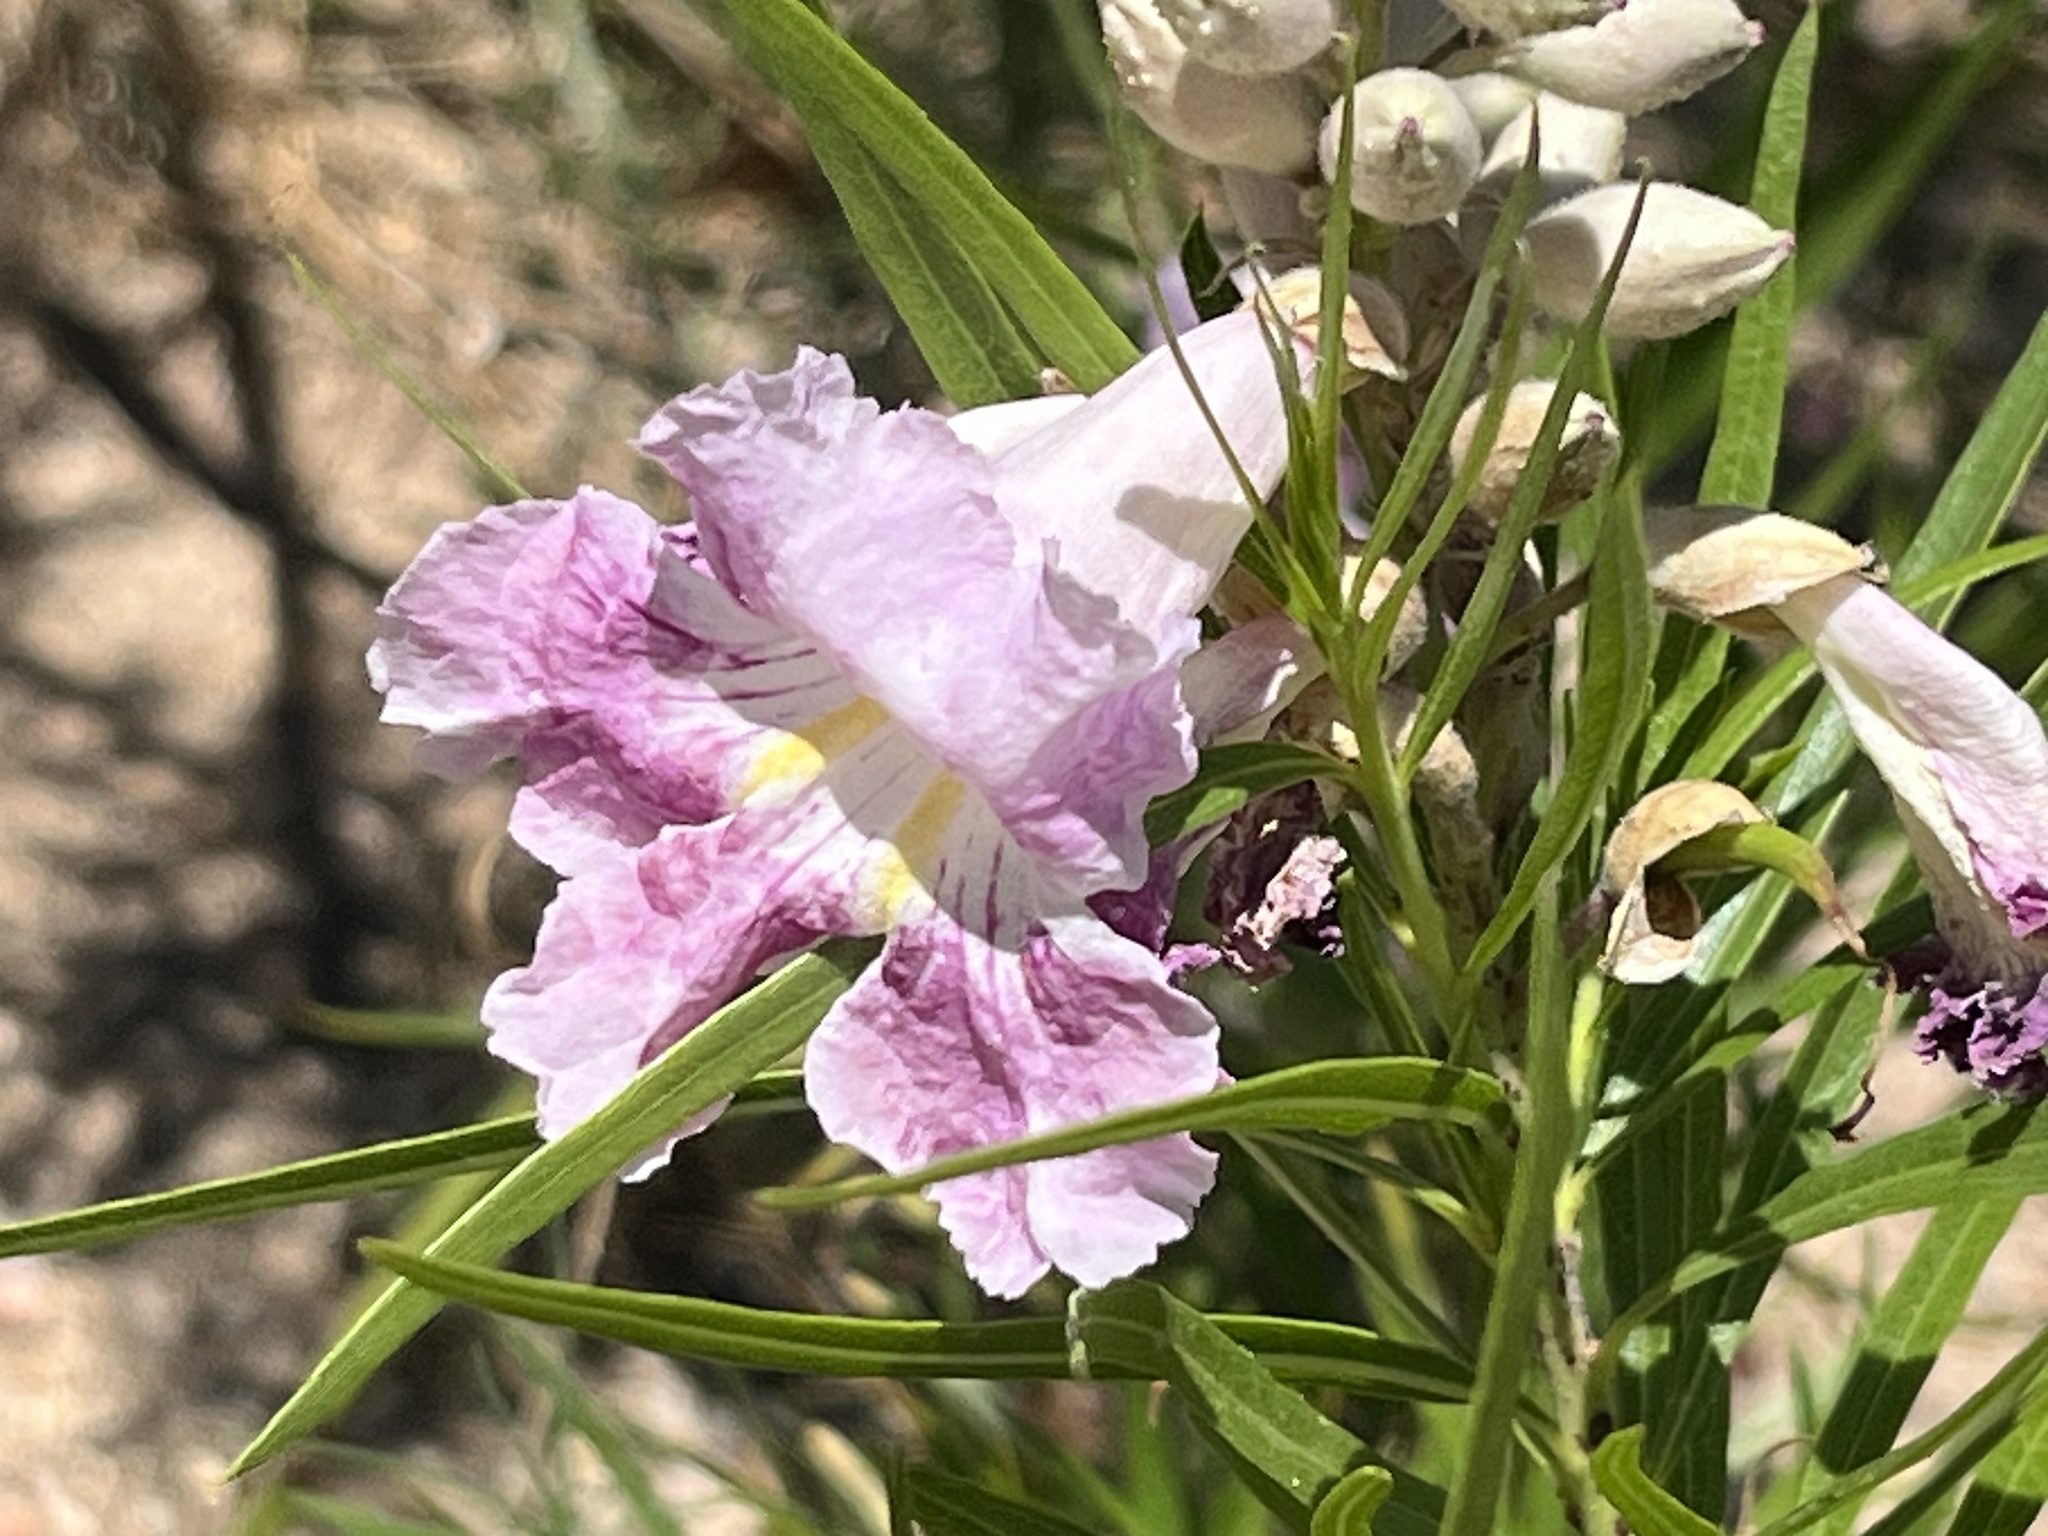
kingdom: Plantae
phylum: Tracheophyta
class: Magnoliopsida
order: Lamiales
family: Bignoniaceae
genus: Chilopsis
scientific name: Chilopsis linearis
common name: Desert-willow
